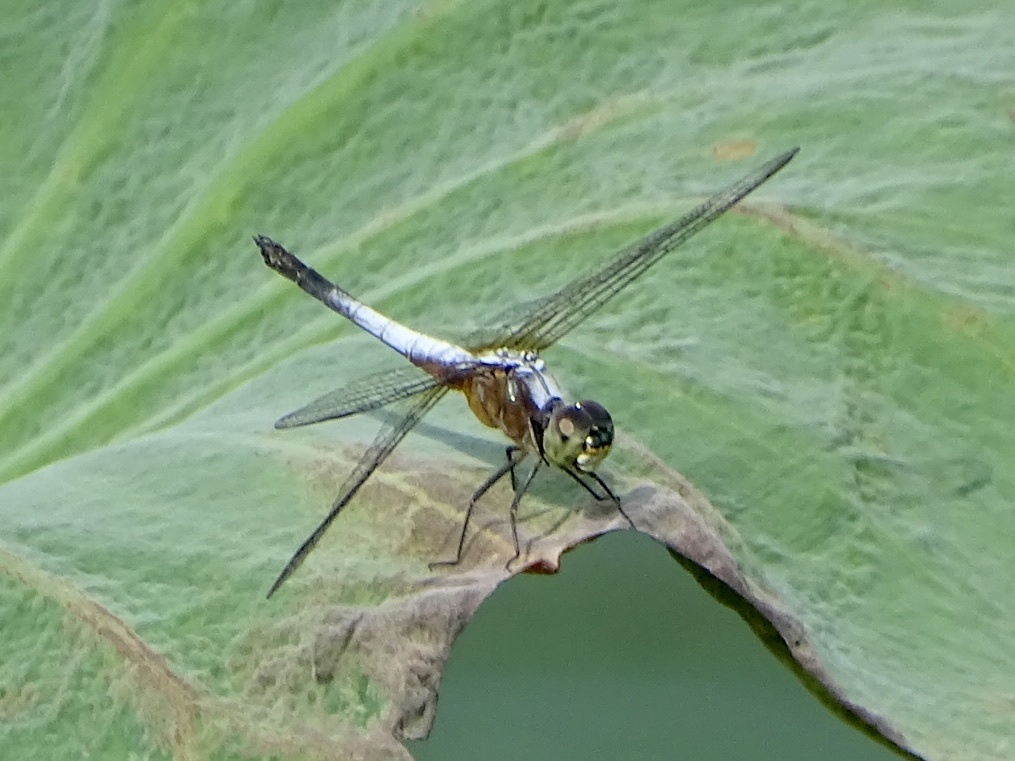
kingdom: Animalia
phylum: Arthropoda
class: Insecta
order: Odonata
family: Libellulidae
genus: Brachydiplax
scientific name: Brachydiplax chalybea
